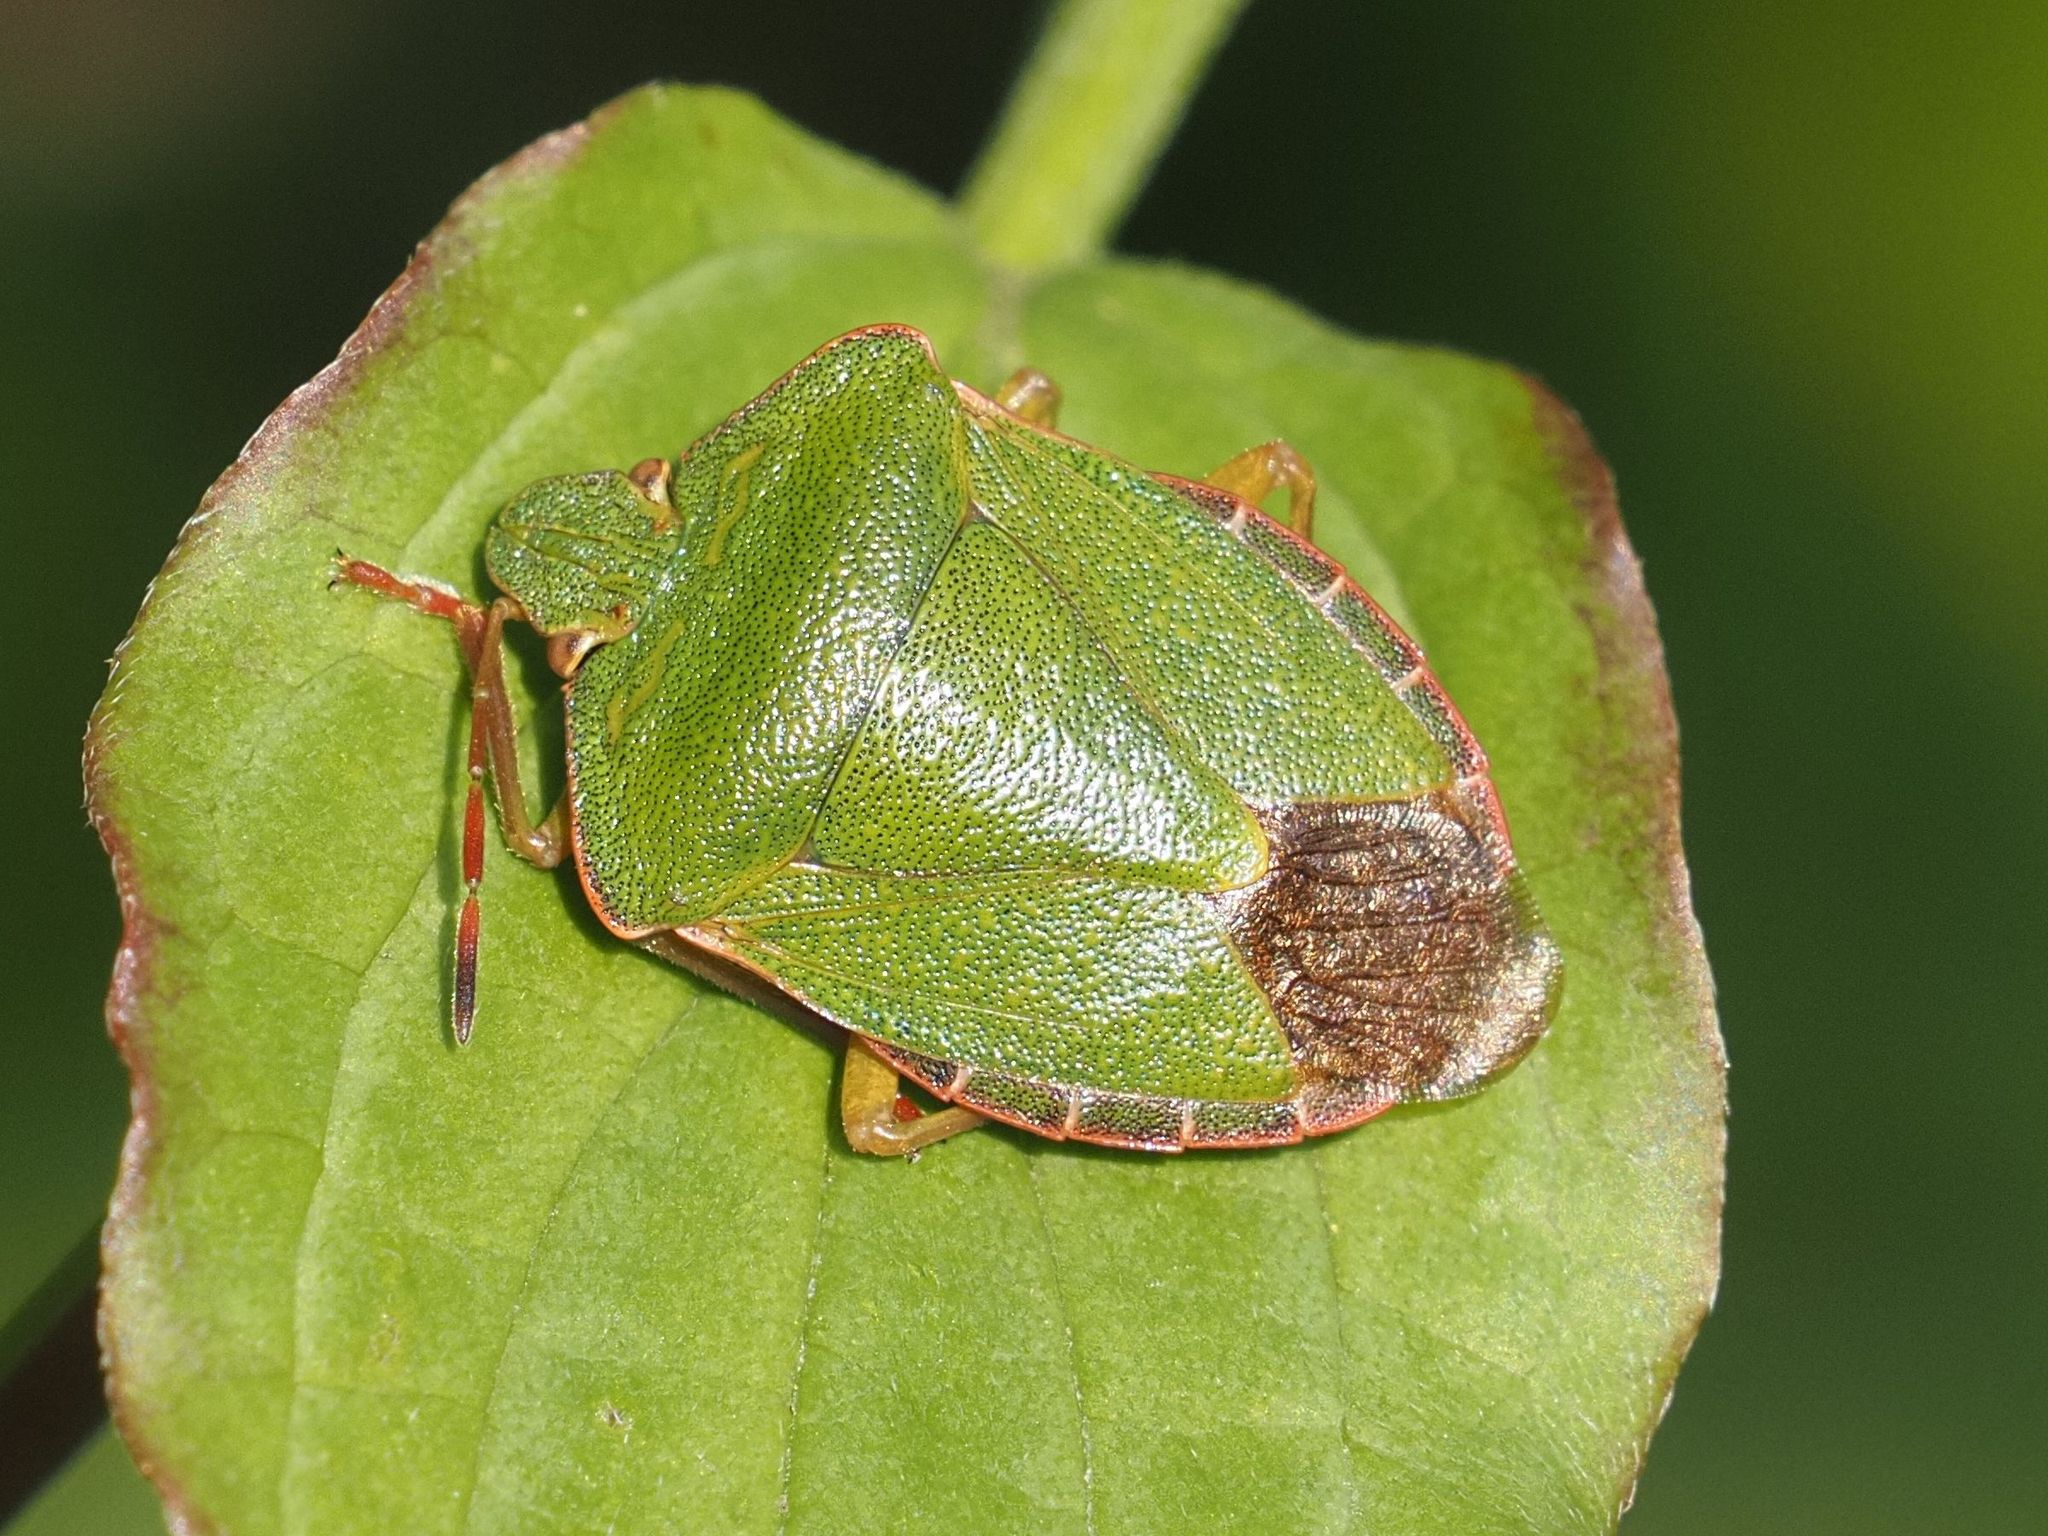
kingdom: Animalia
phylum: Arthropoda
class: Insecta
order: Hemiptera
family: Pentatomidae
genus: Palomena
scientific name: Palomena prasina
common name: Green shieldbug
